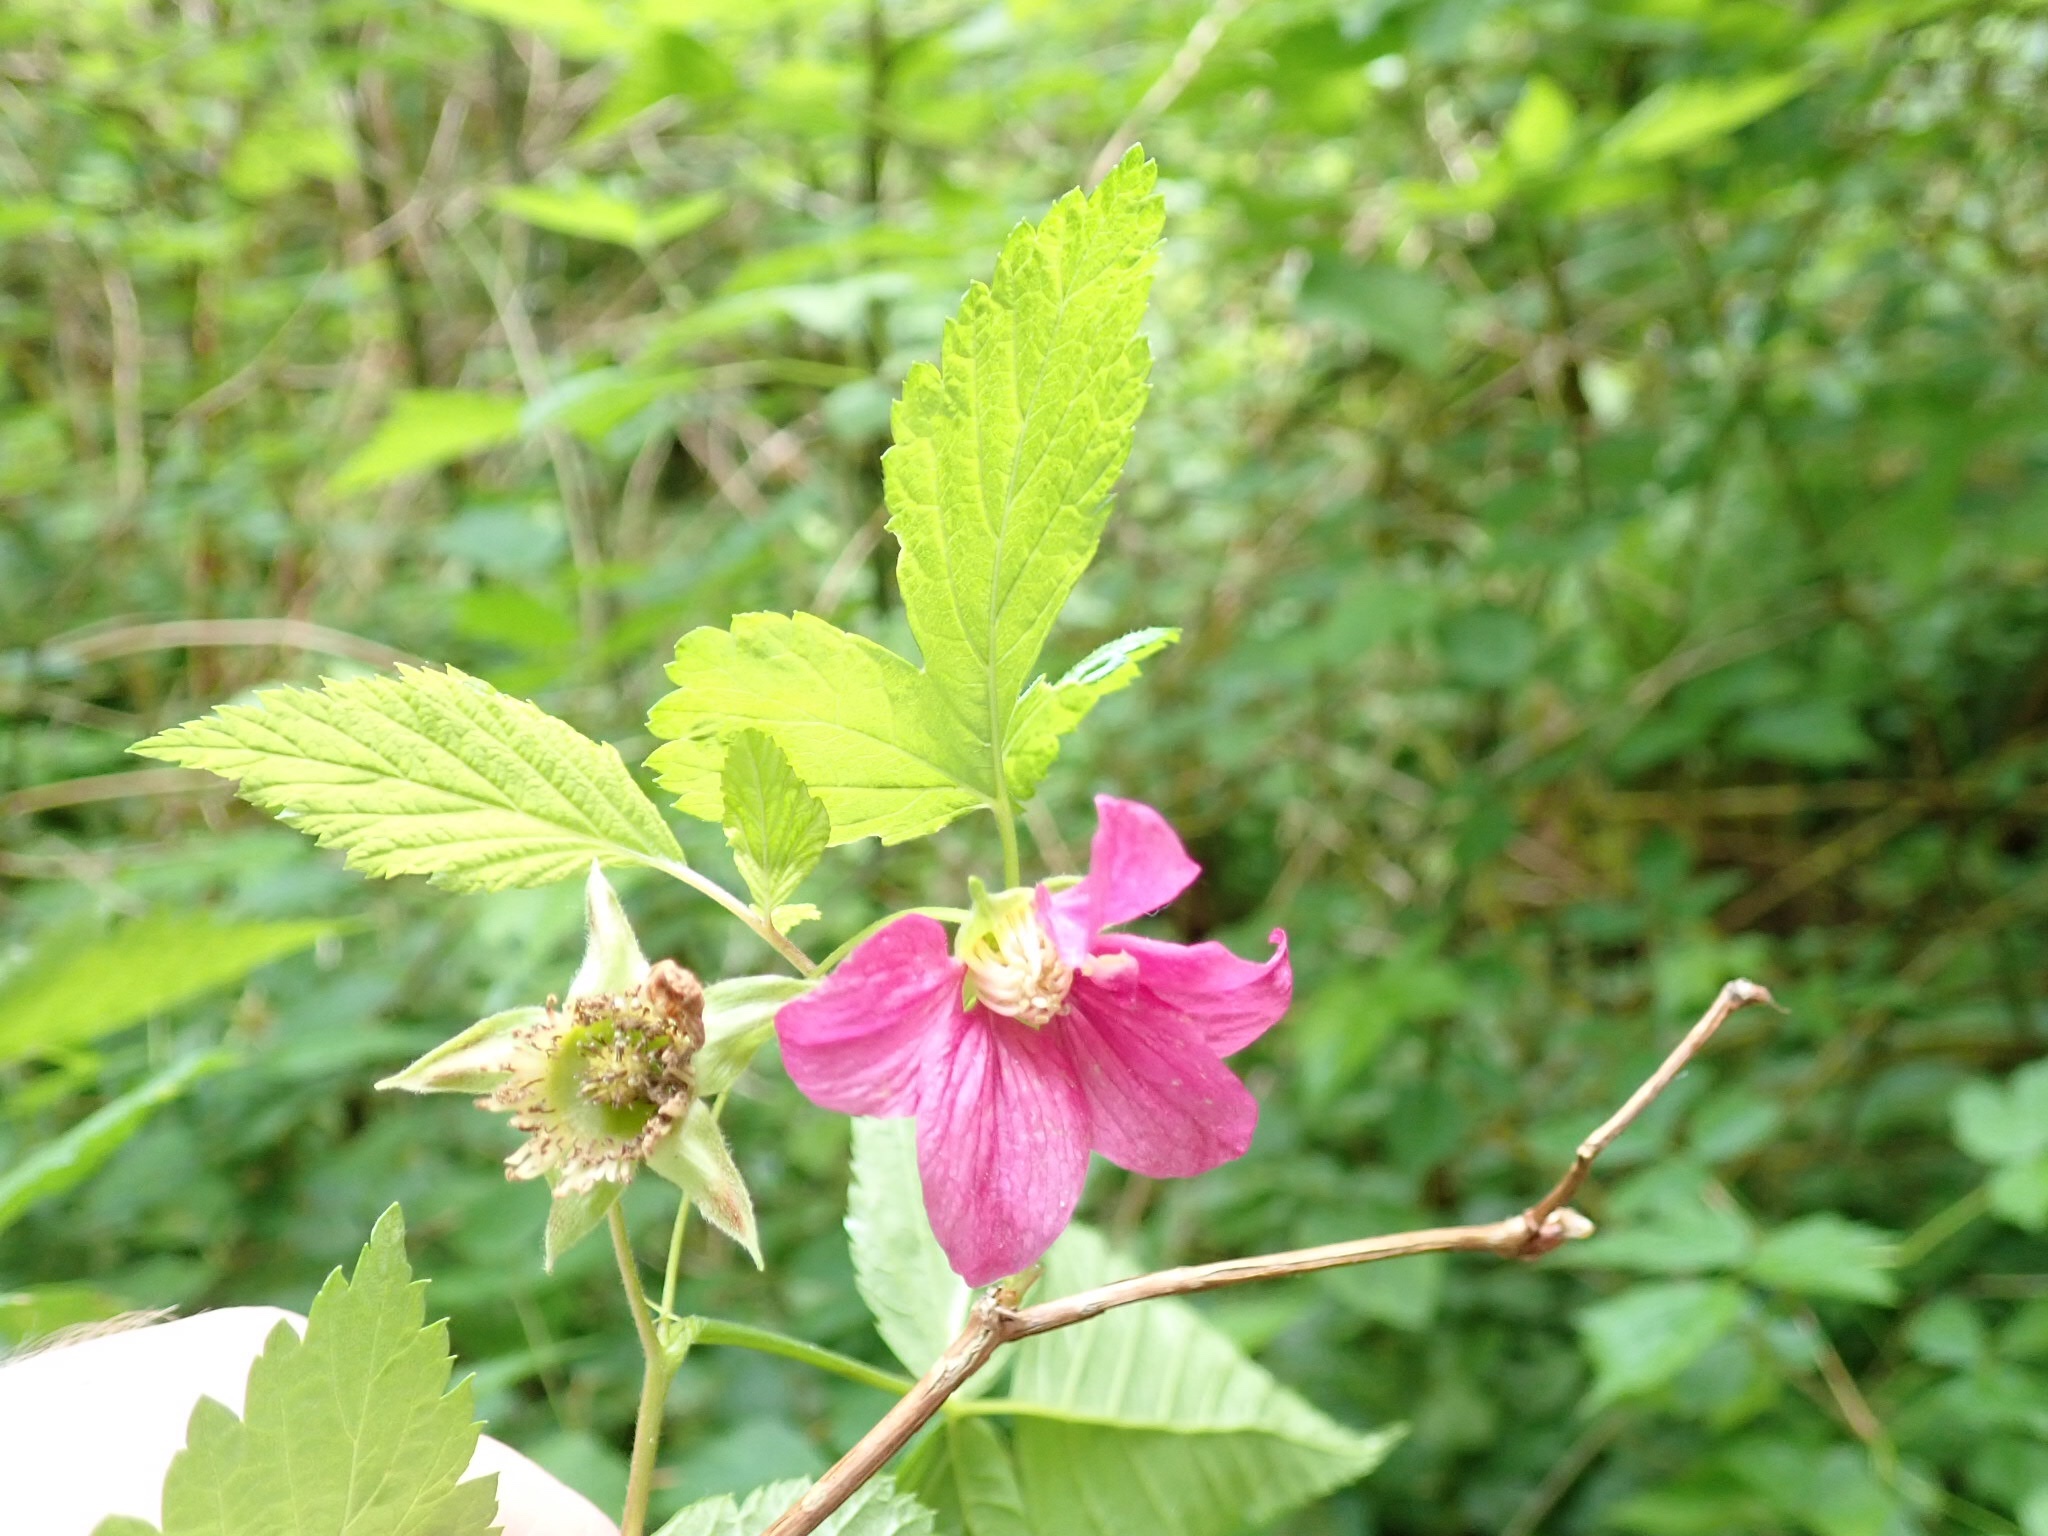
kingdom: Plantae
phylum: Tracheophyta
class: Magnoliopsida
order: Rosales
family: Rosaceae
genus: Rubus
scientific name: Rubus spectabilis
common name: Salmonberry
